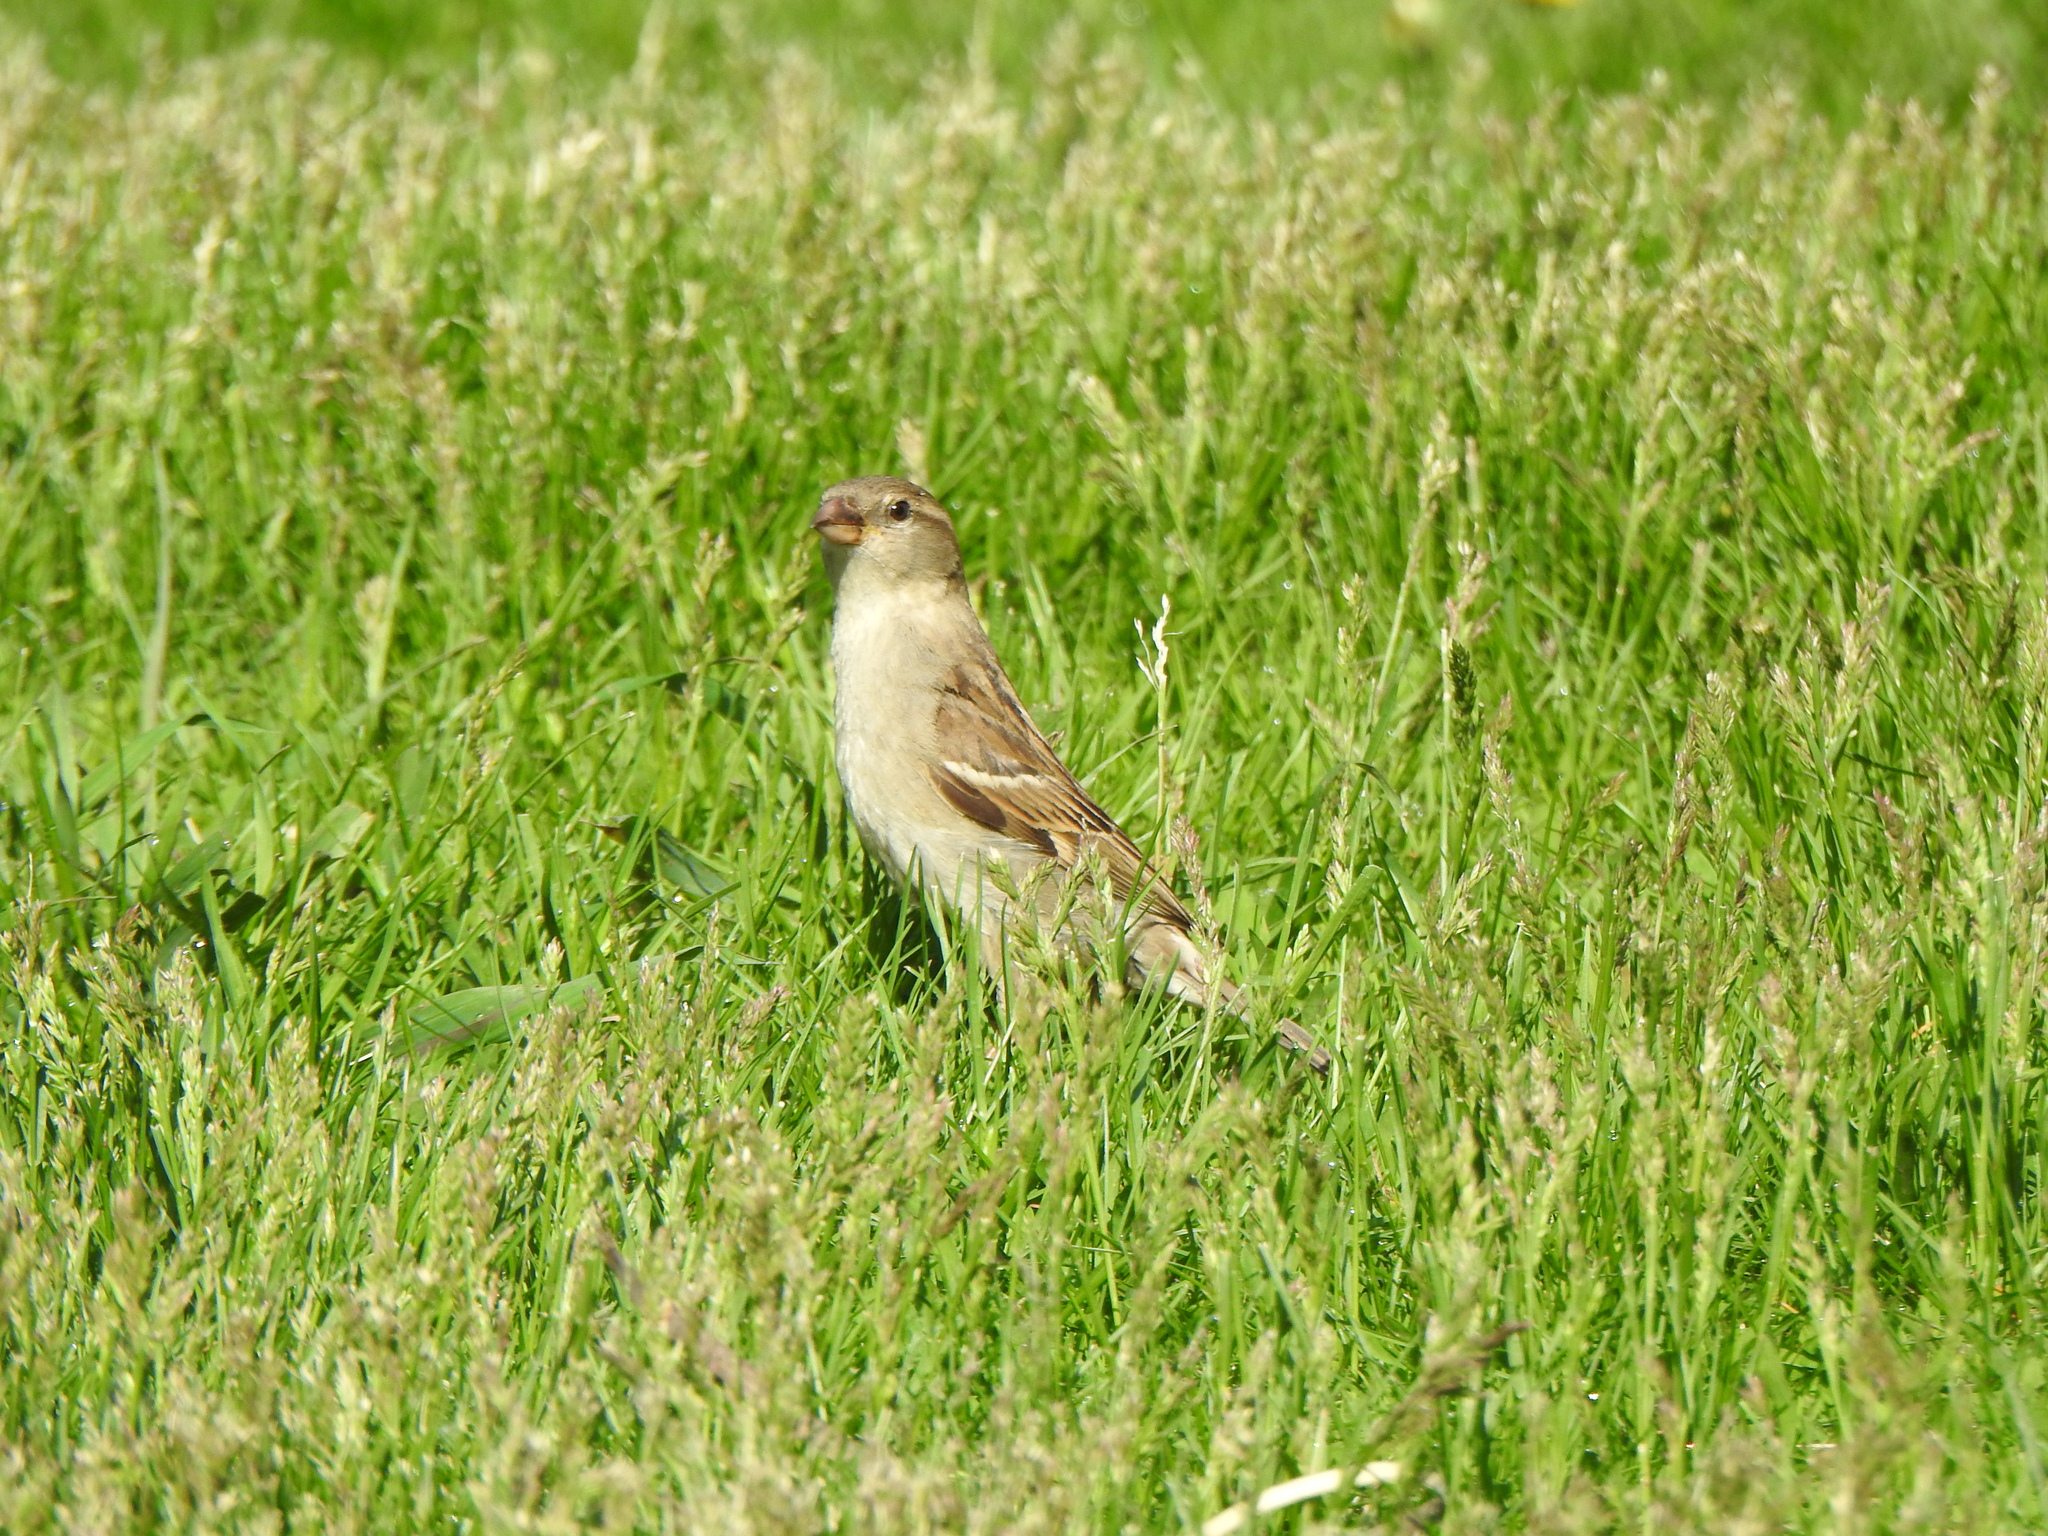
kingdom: Animalia
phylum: Chordata
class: Aves
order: Passeriformes
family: Passeridae
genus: Passer
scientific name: Passer domesticus
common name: House sparrow
